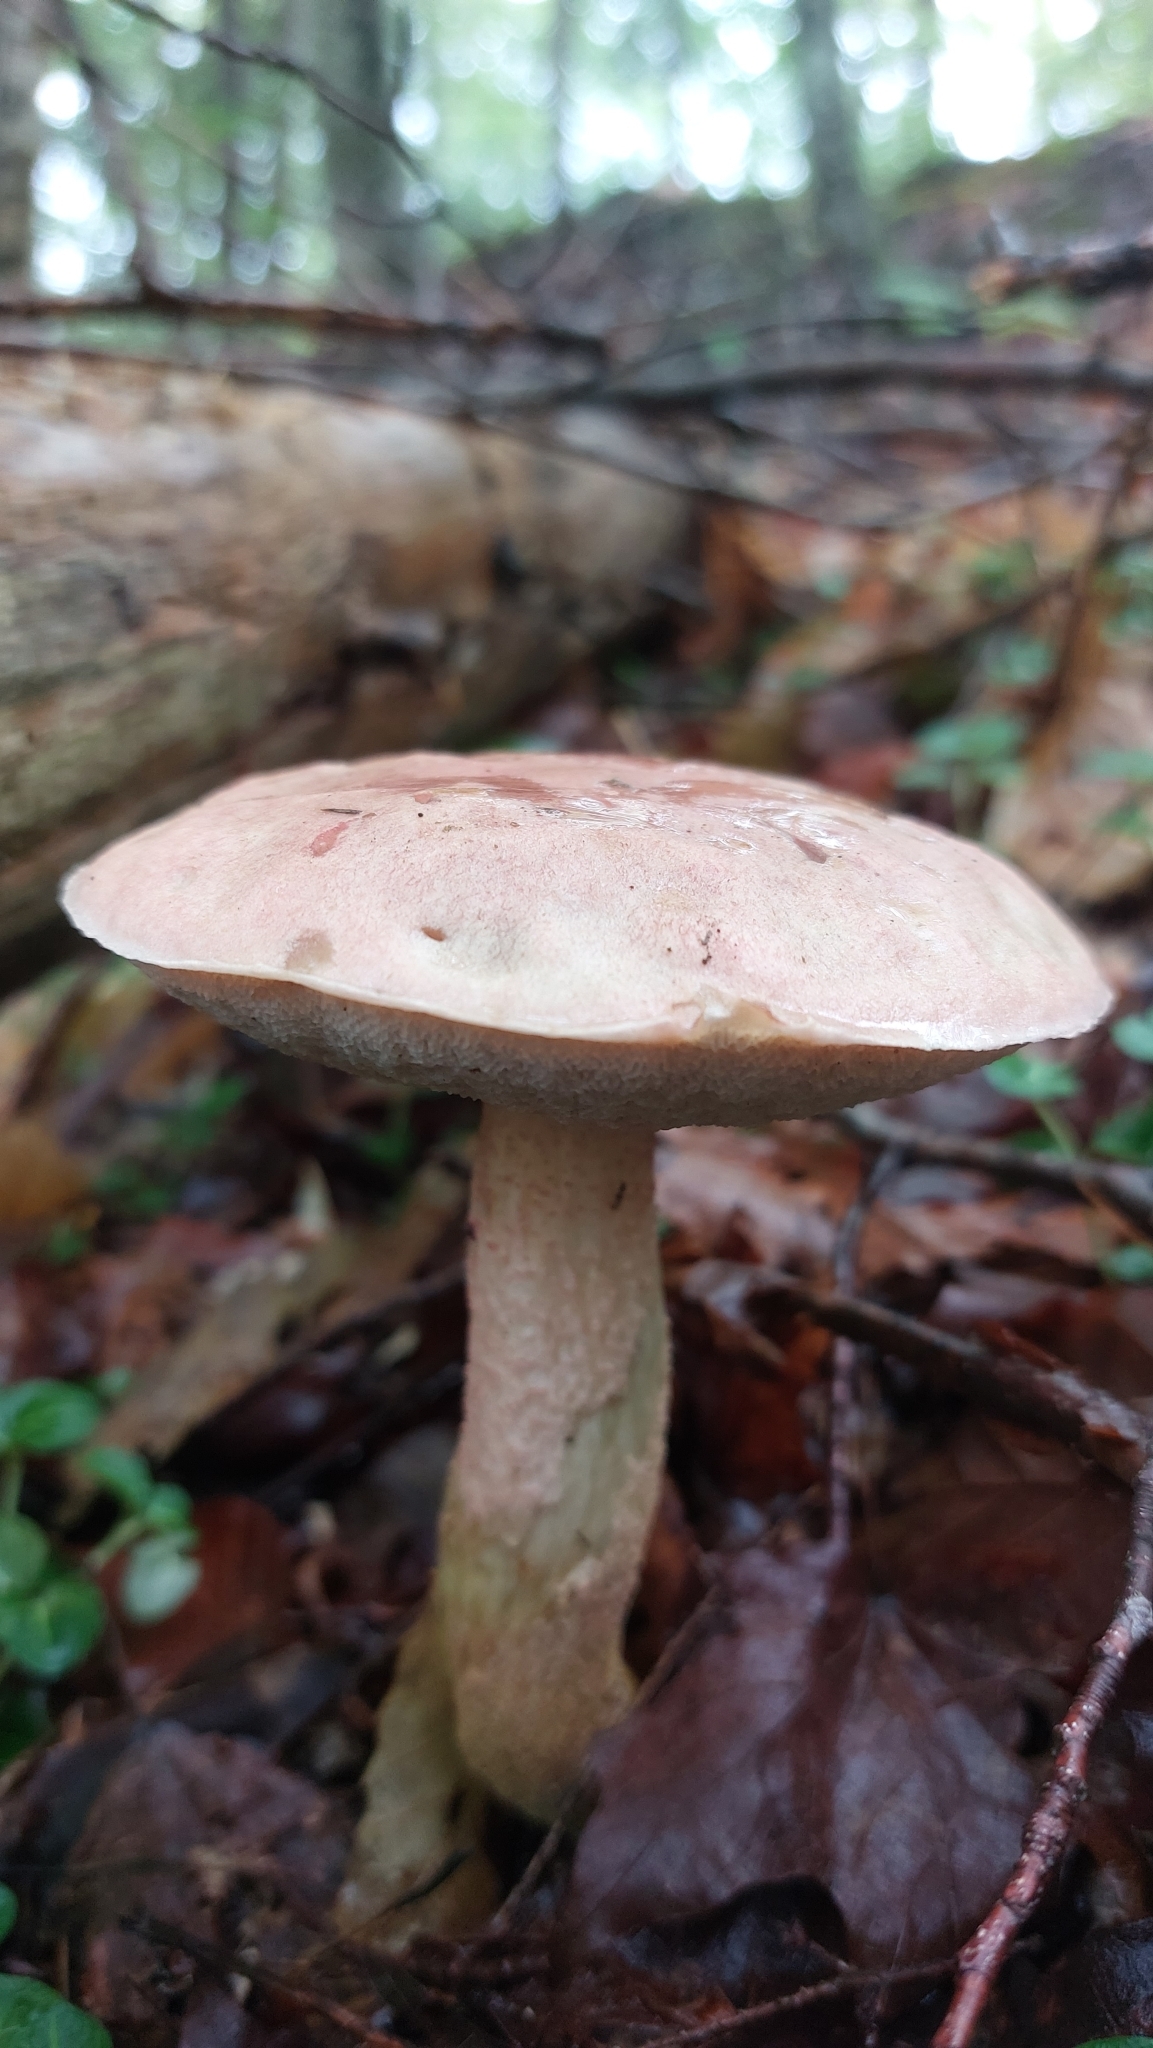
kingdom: Fungi
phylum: Basidiomycota
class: Agaricomycetes
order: Boletales
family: Boletaceae
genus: Harrya
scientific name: Harrya chromipes
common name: Chrome-footed bolete
